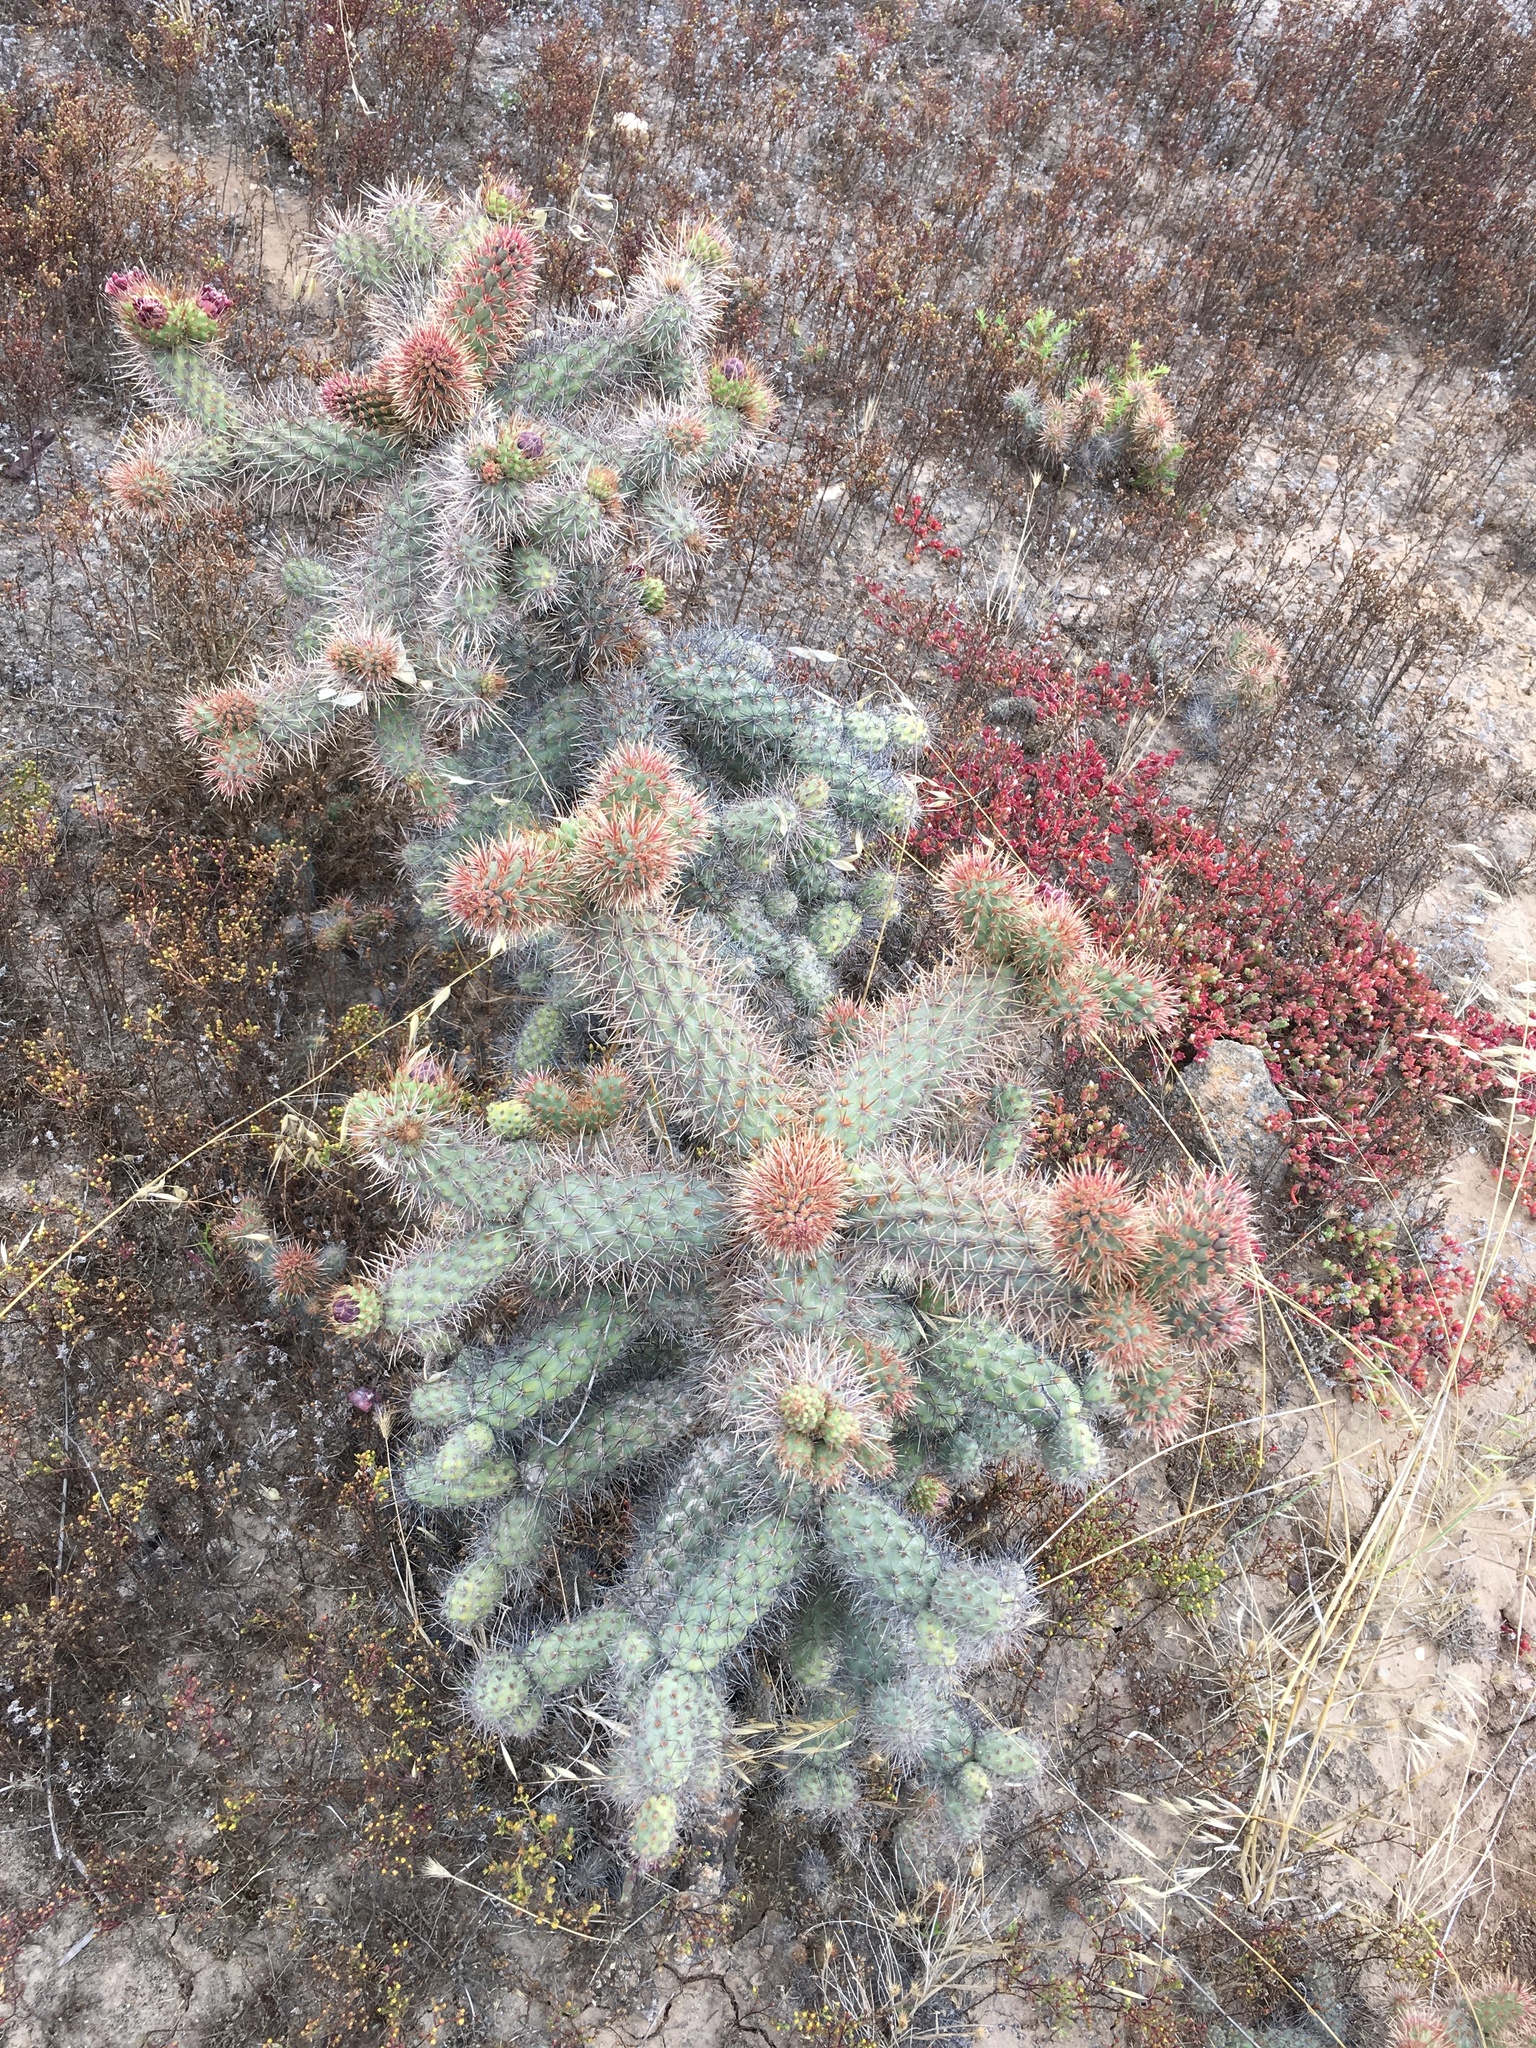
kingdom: Plantae
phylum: Tracheophyta
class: Magnoliopsida
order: Caryophyllales
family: Cactaceae
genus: Cylindropuntia
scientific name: Cylindropuntia prolifera
